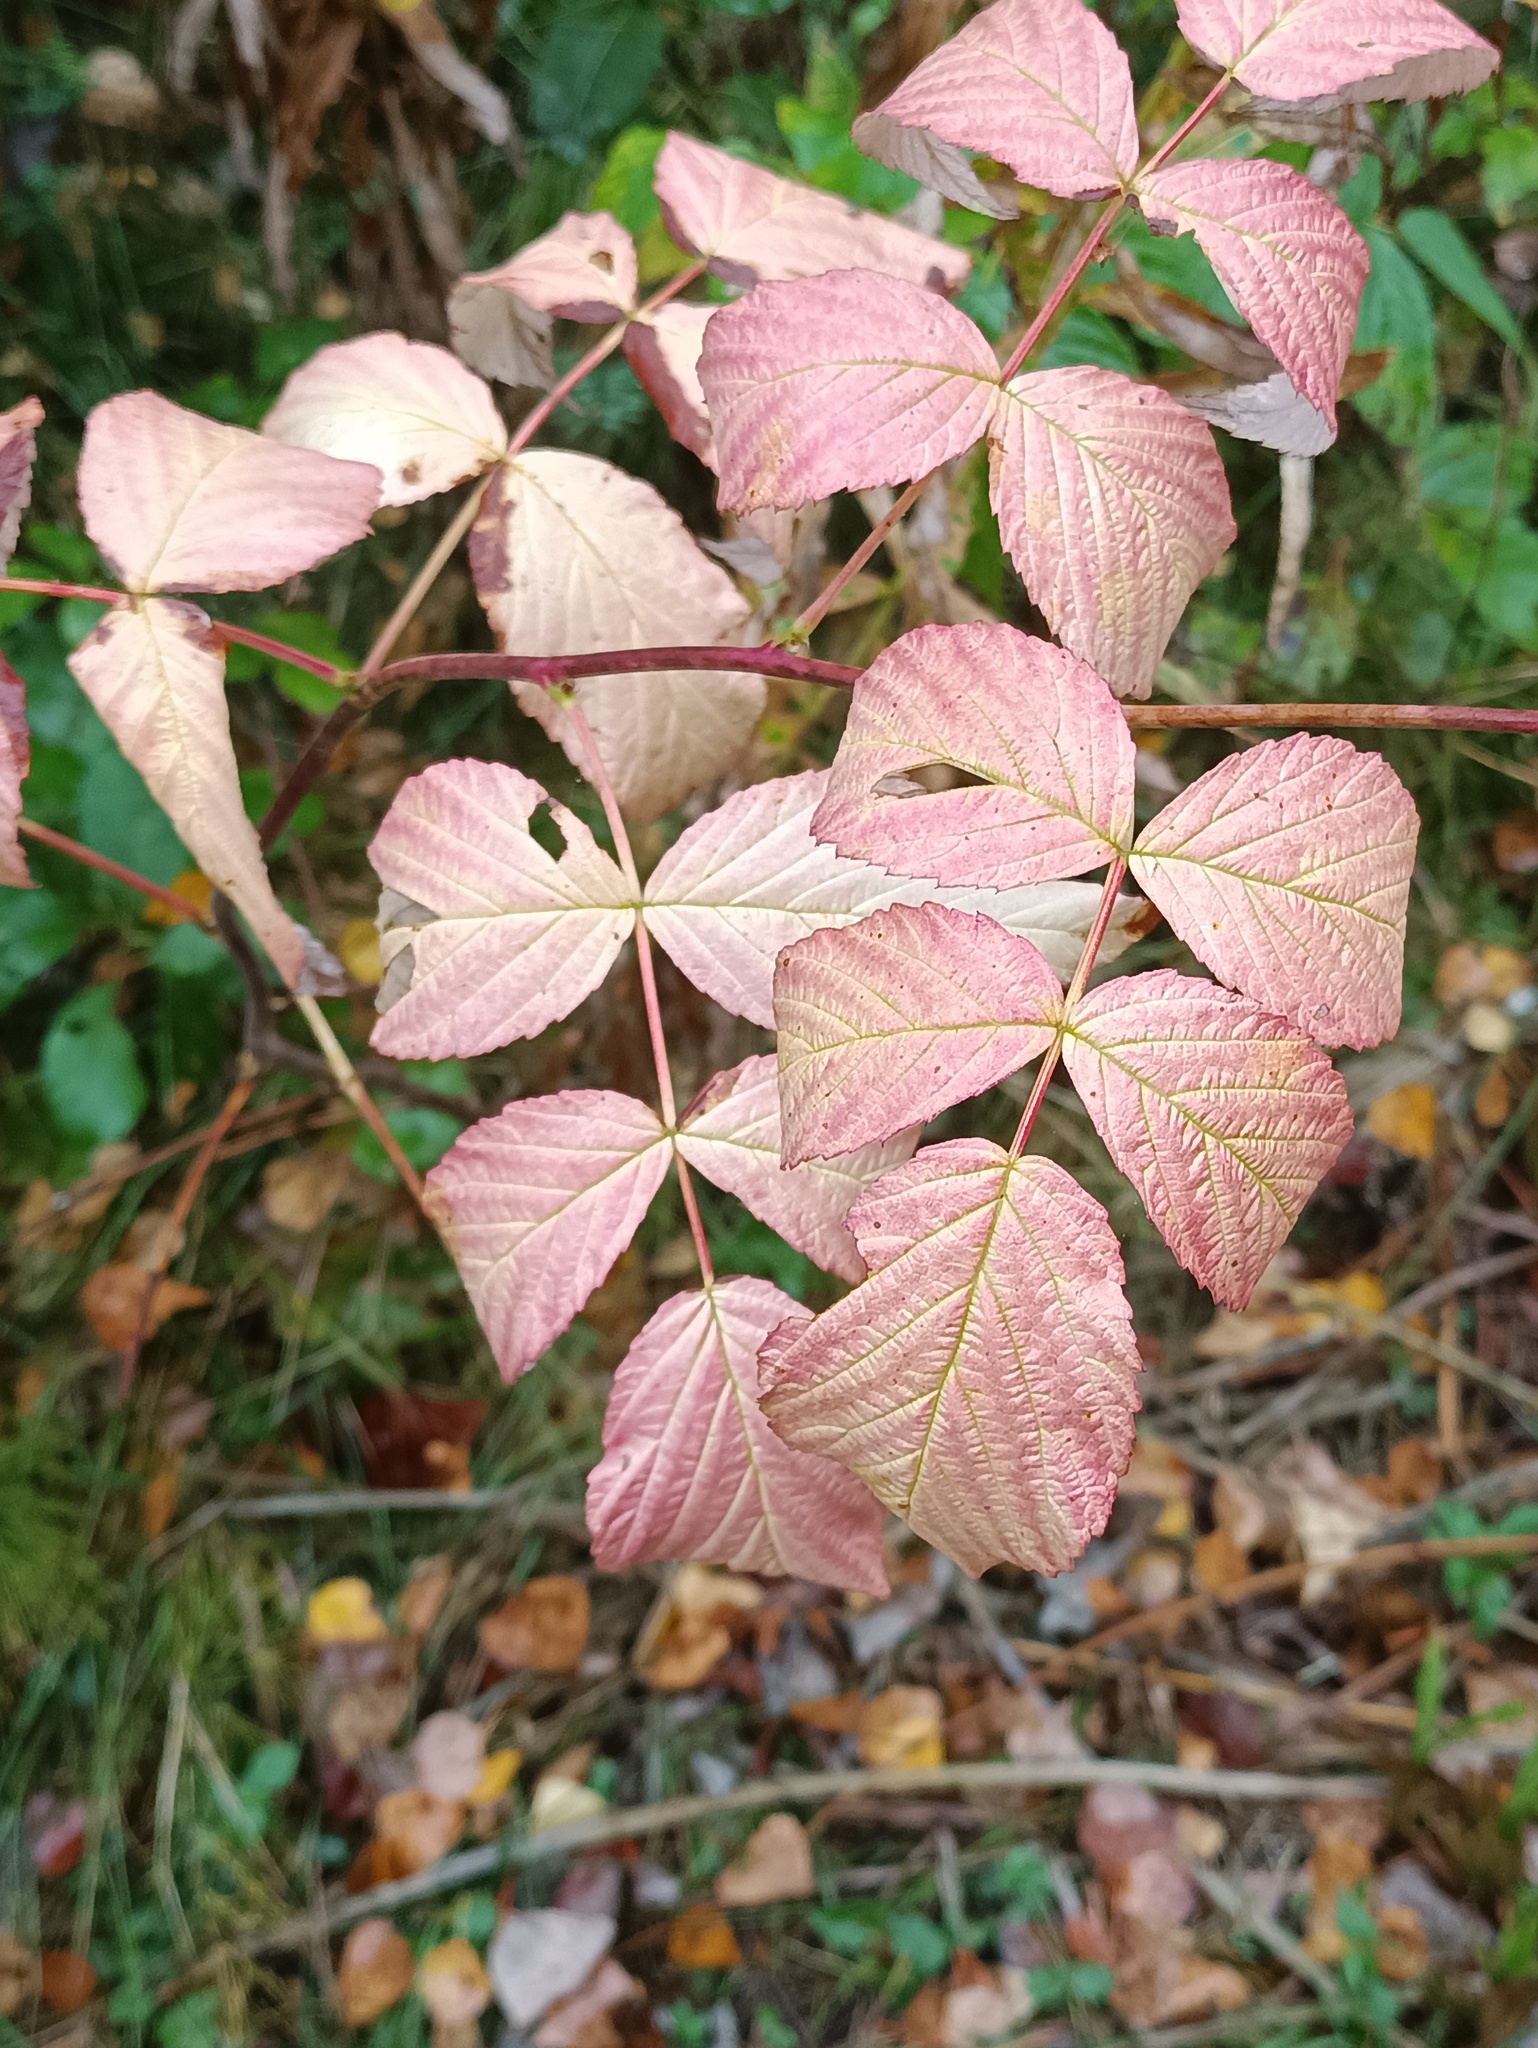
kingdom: Plantae
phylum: Tracheophyta
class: Magnoliopsida
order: Rosales
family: Rosaceae
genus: Rubus
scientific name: Rubus idaeus
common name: Raspberry
